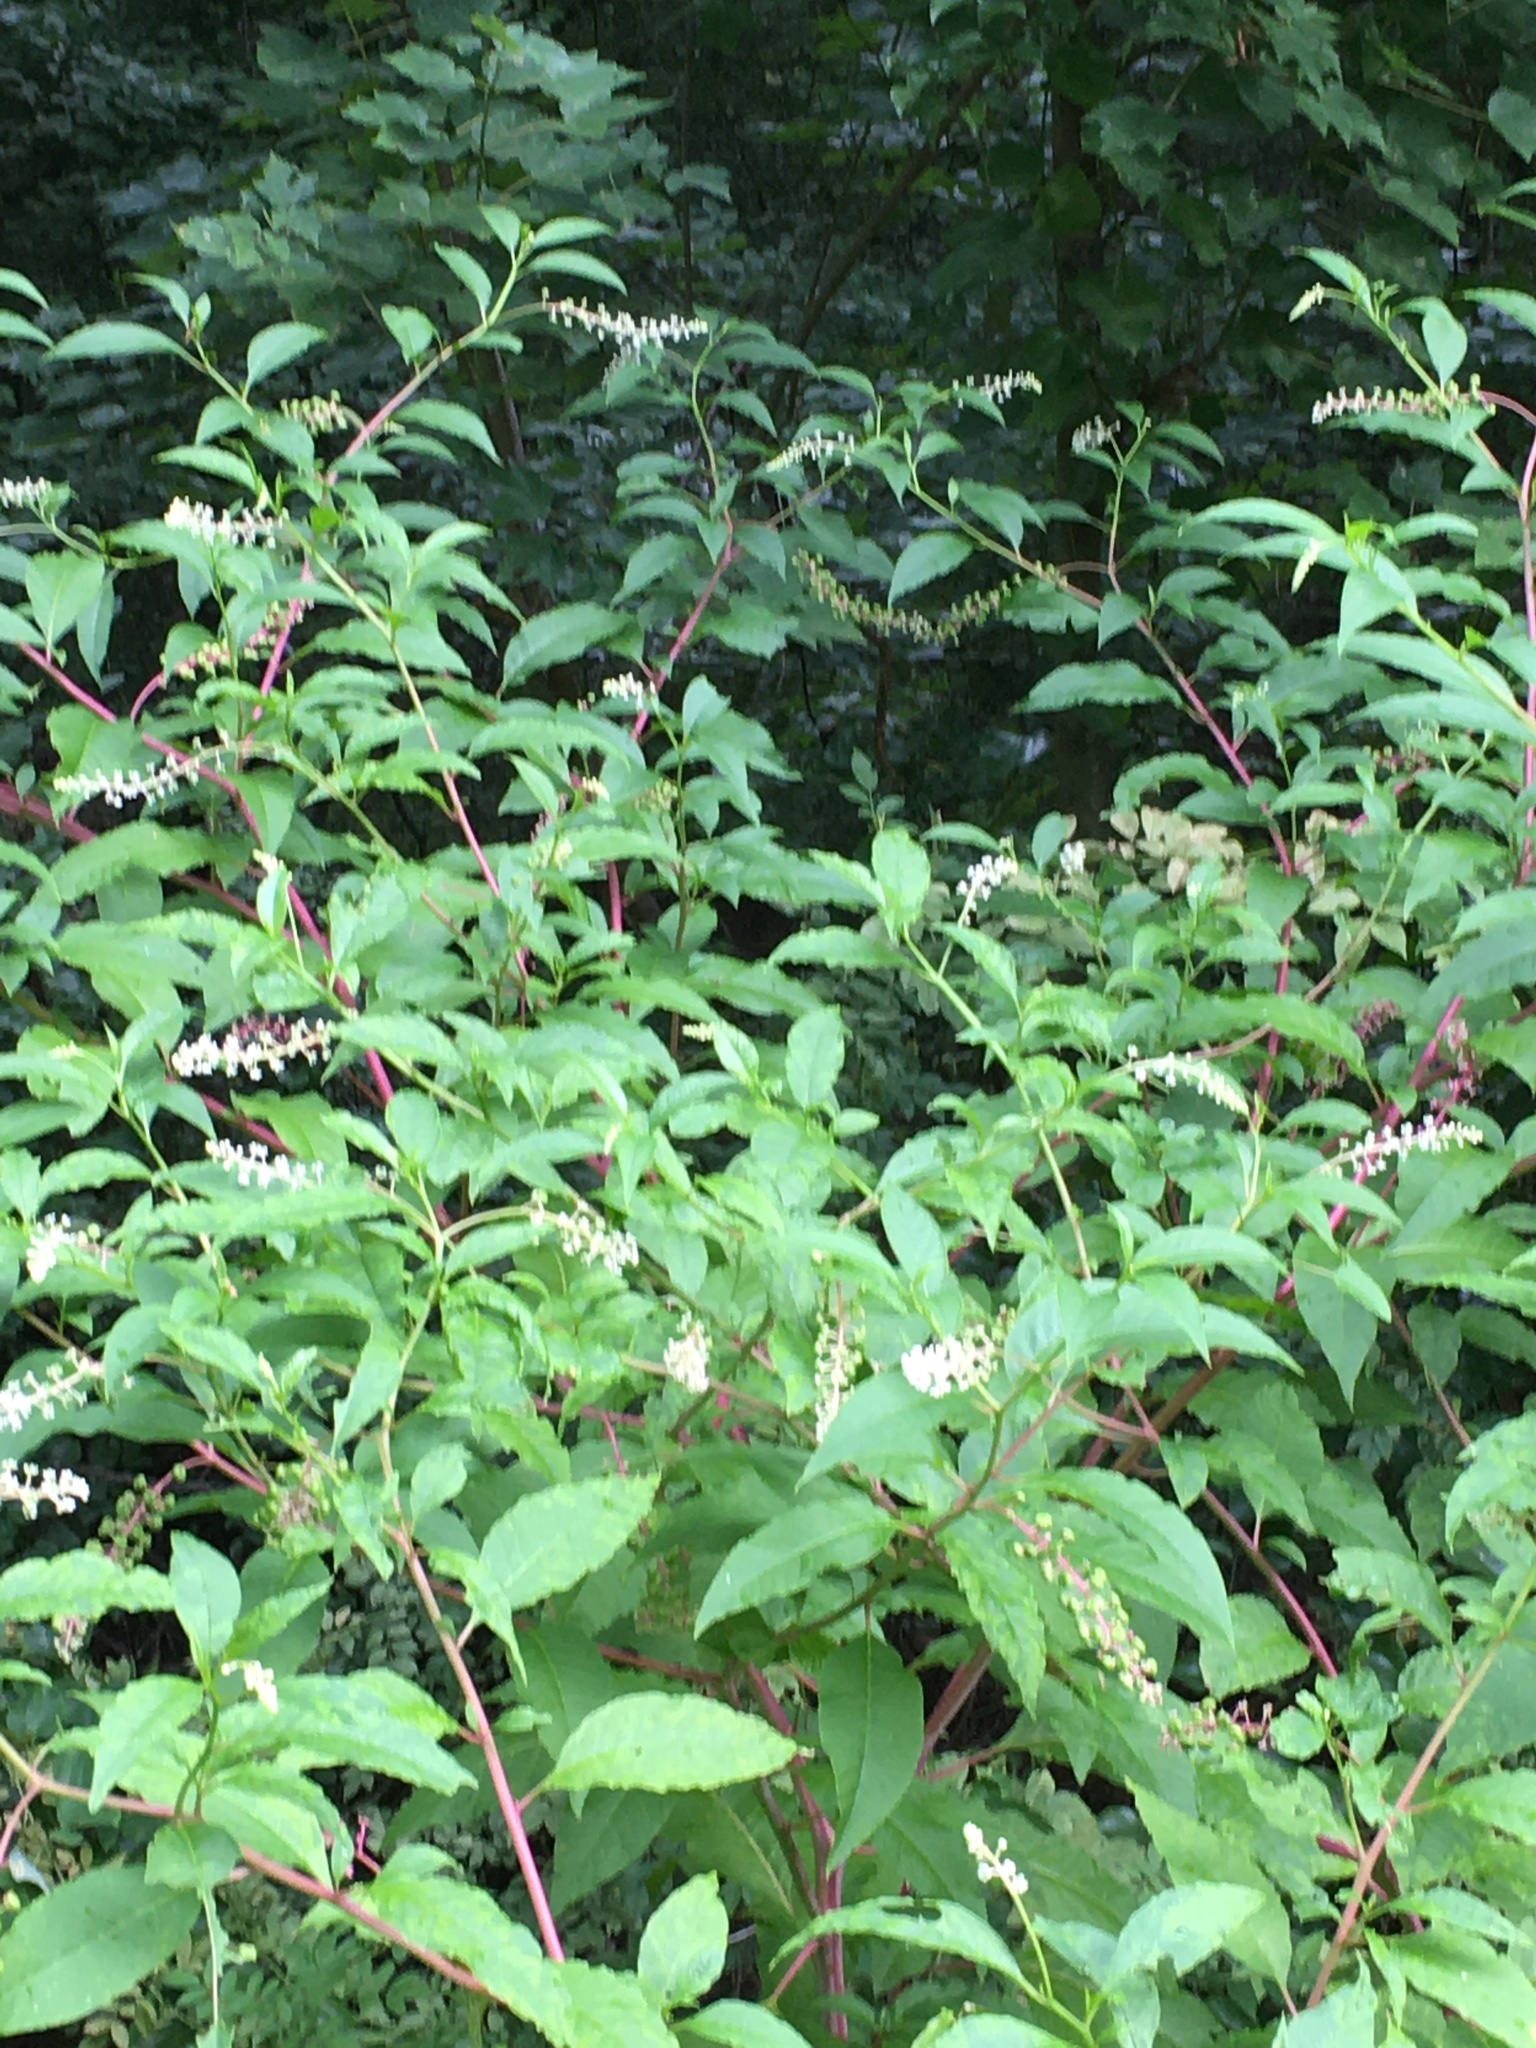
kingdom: Plantae
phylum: Tracheophyta
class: Magnoliopsida
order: Caryophyllales
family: Phytolaccaceae
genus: Phytolacca
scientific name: Phytolacca americana
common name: American pokeweed
